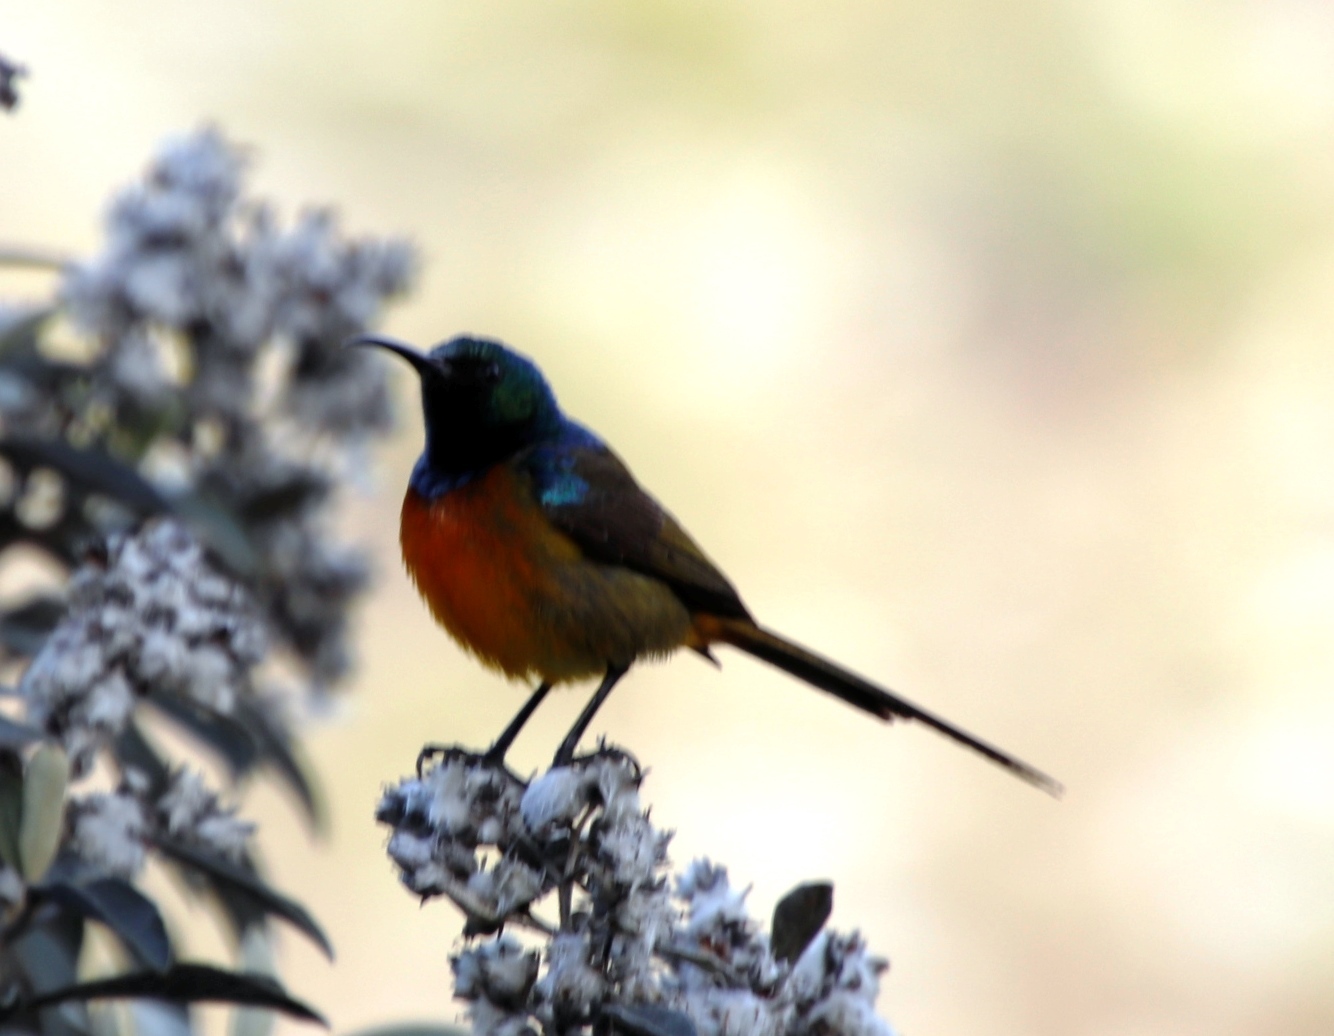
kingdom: Animalia
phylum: Chordata
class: Aves
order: Passeriformes
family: Nectariniidae
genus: Anthobaphes
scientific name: Anthobaphes violacea
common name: Orange-breasted sunbird
